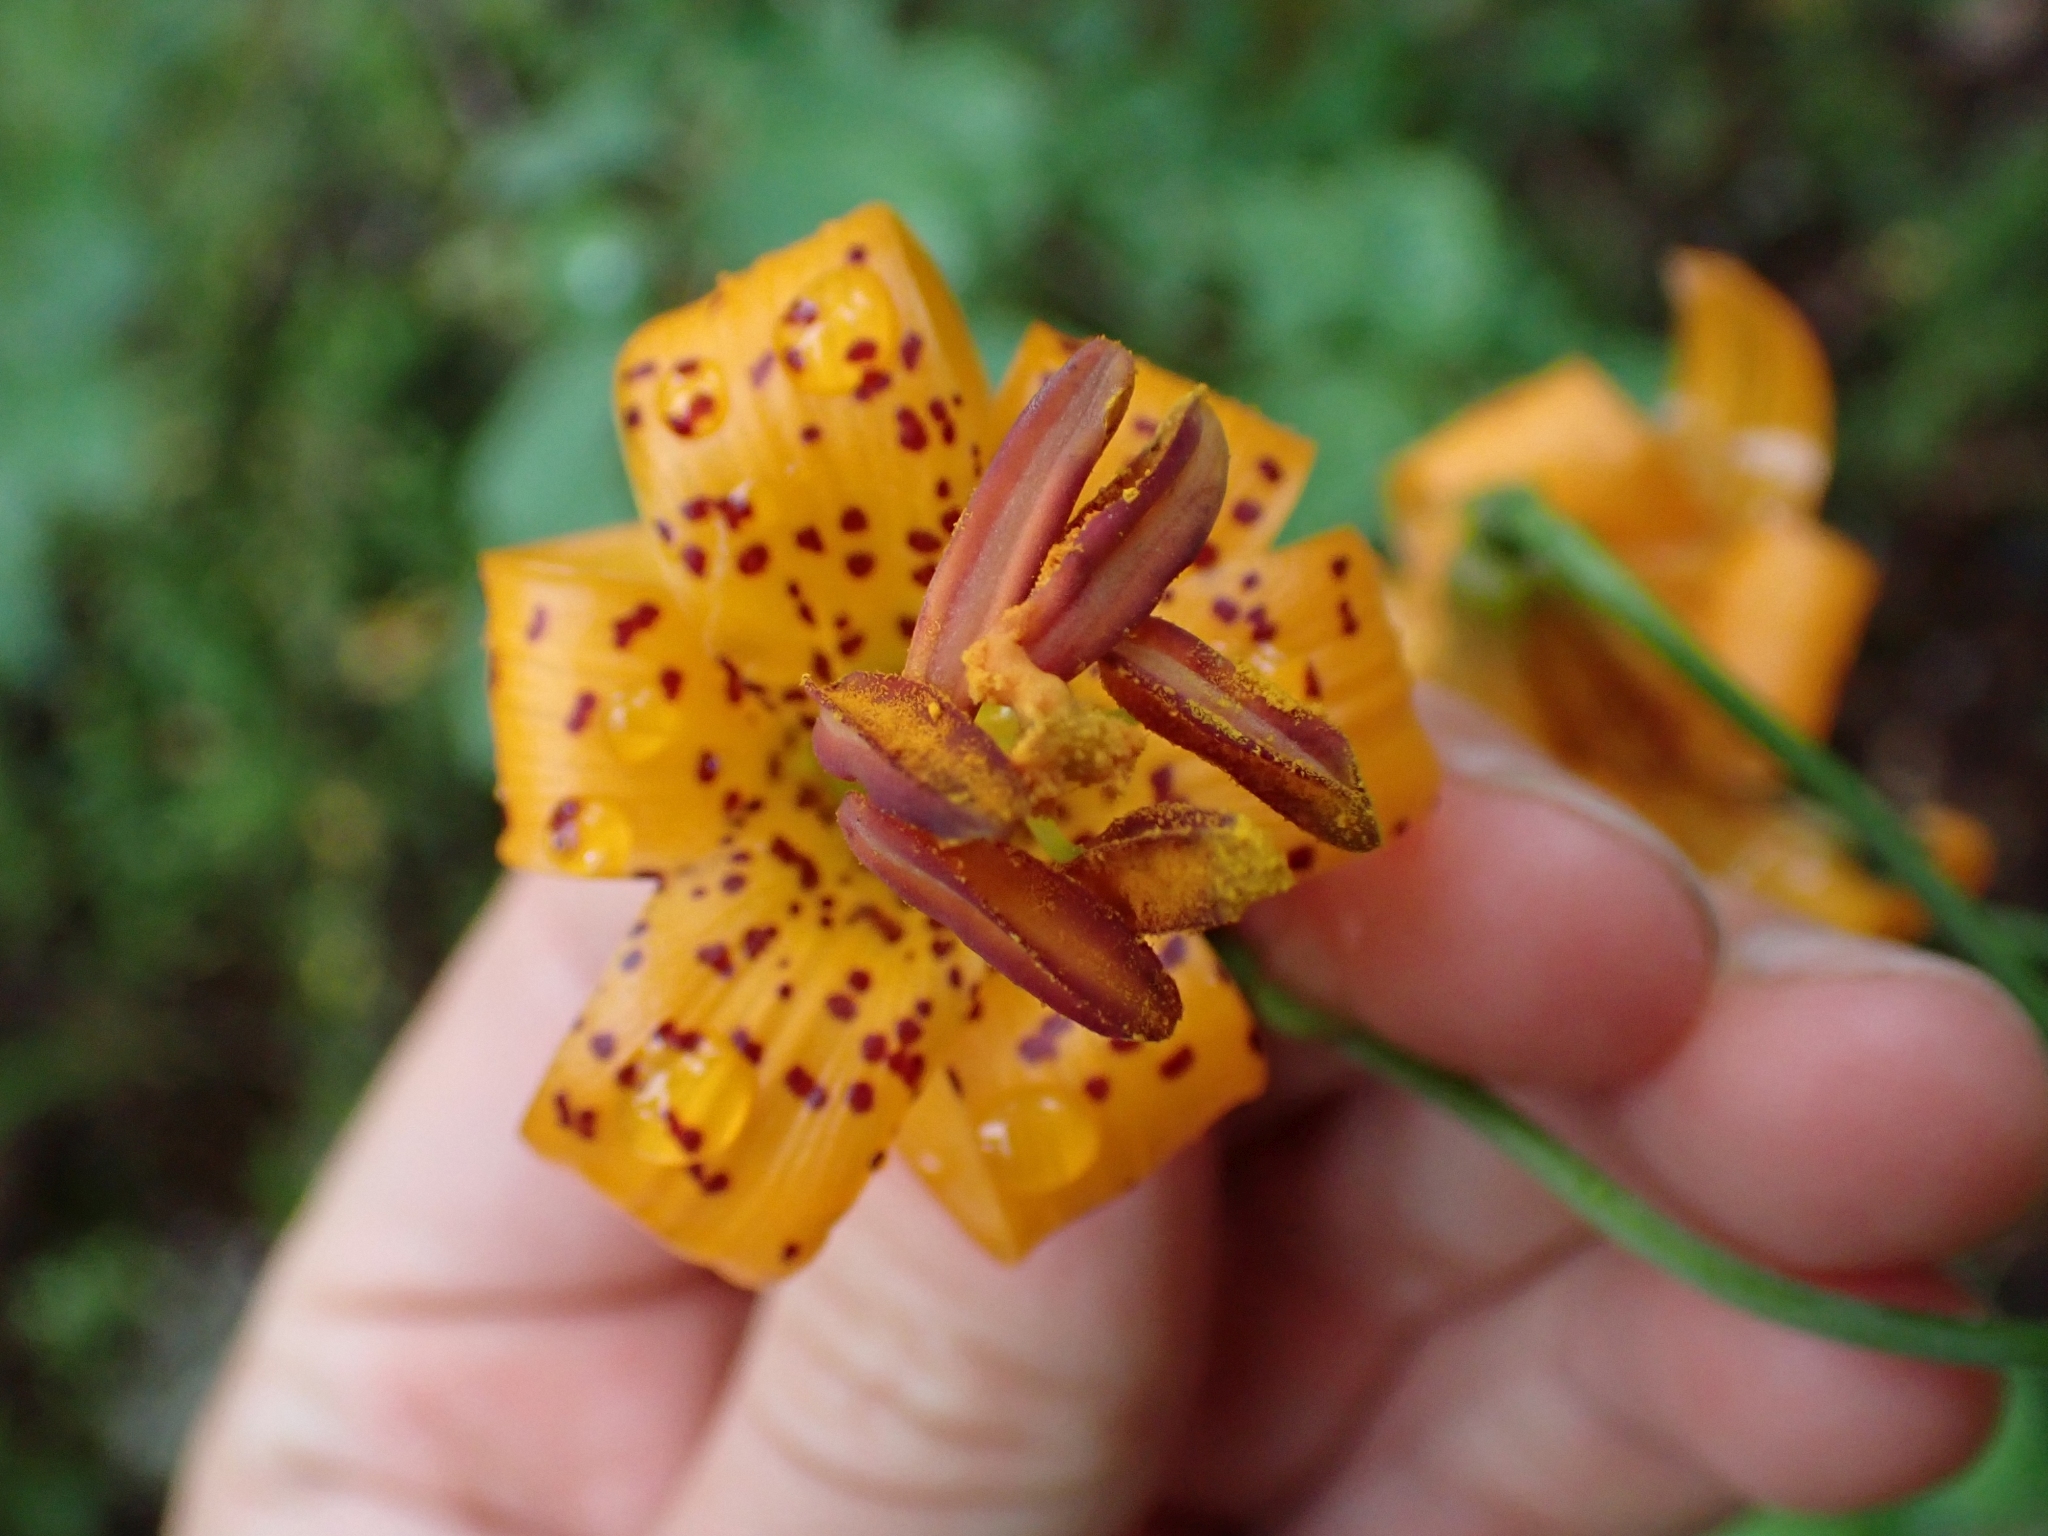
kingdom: Plantae
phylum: Tracheophyta
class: Liliopsida
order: Liliales
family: Liliaceae
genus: Lilium
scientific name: Lilium columbianum
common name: Columbia lily
